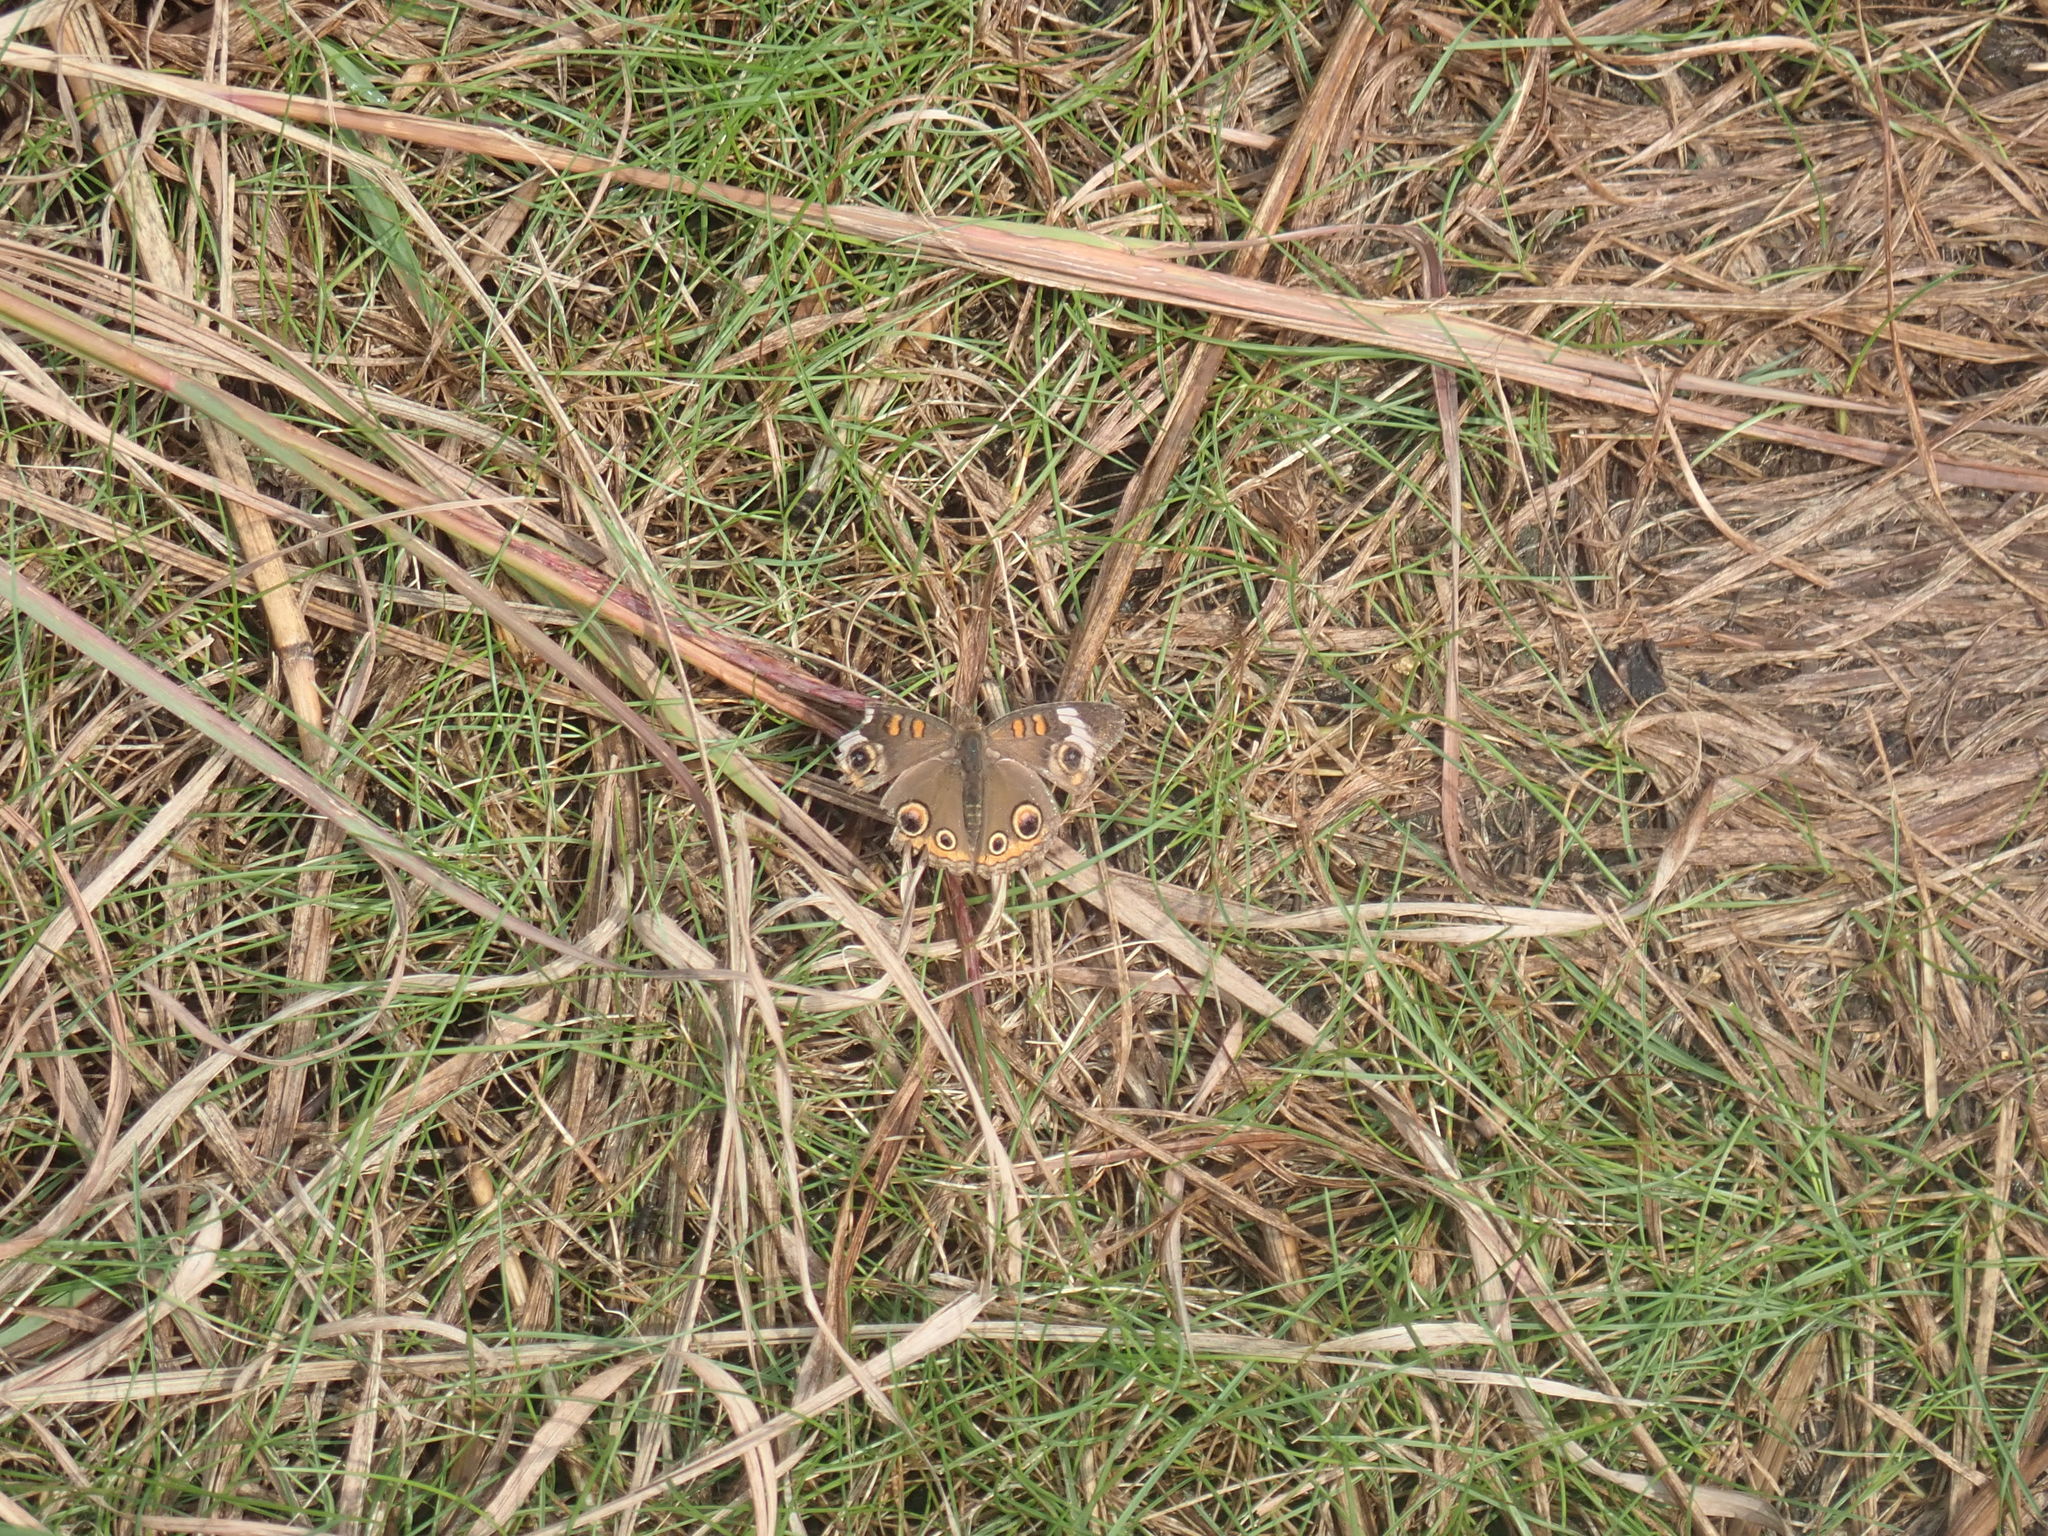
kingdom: Animalia
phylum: Arthropoda
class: Insecta
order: Lepidoptera
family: Nymphalidae
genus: Junonia
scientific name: Junonia coenia
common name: Common buckeye
